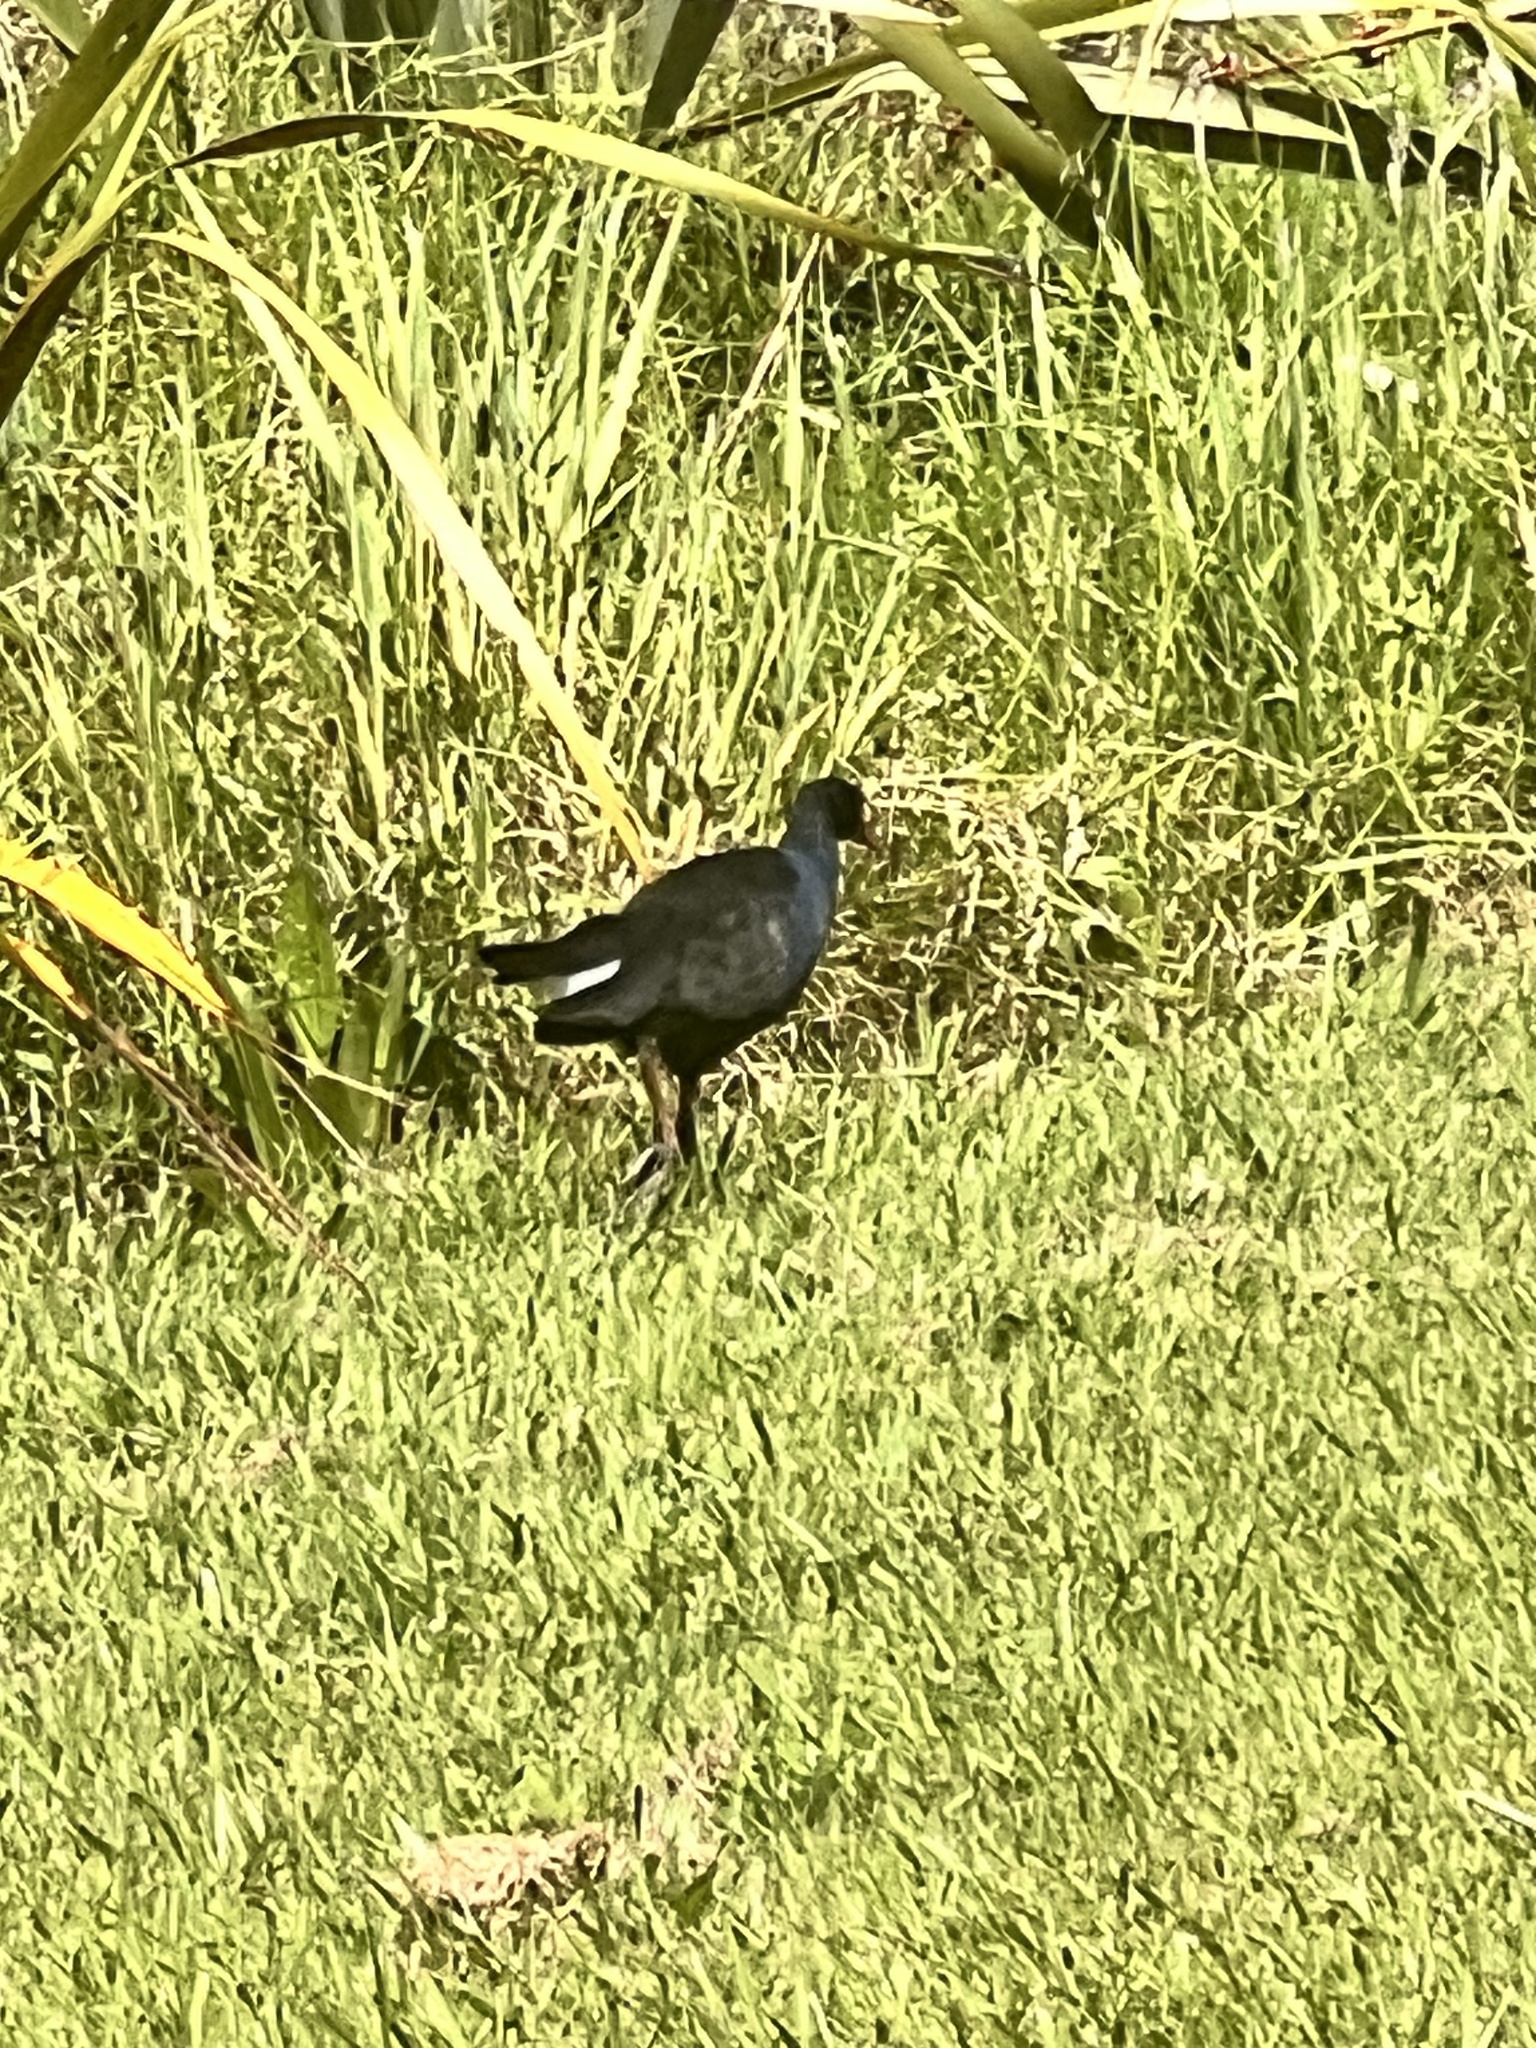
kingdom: Animalia
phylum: Chordata
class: Aves
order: Gruiformes
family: Rallidae
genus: Porphyrio
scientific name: Porphyrio melanotus
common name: Australasian swamphen
